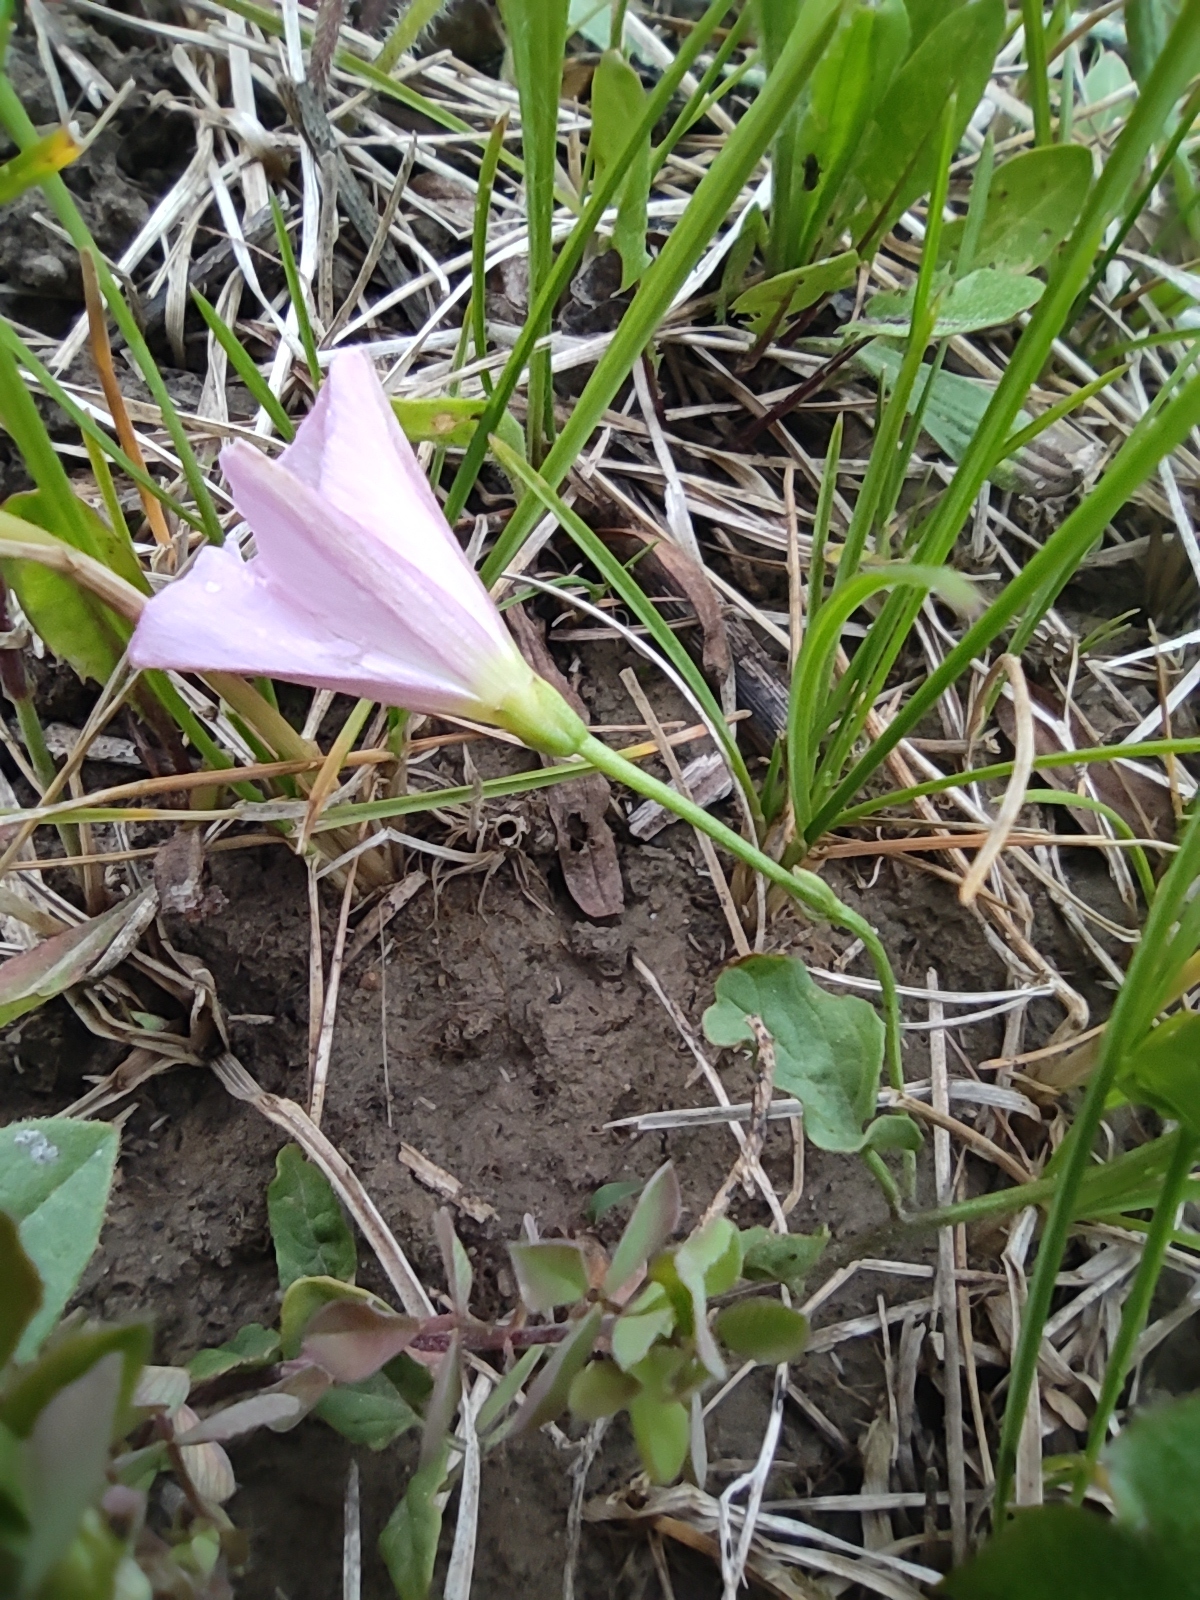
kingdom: Plantae
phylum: Tracheophyta
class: Magnoliopsida
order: Solanales
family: Convolvulaceae
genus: Convolvulus
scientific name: Convolvulus arvensis
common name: Field bindweed
